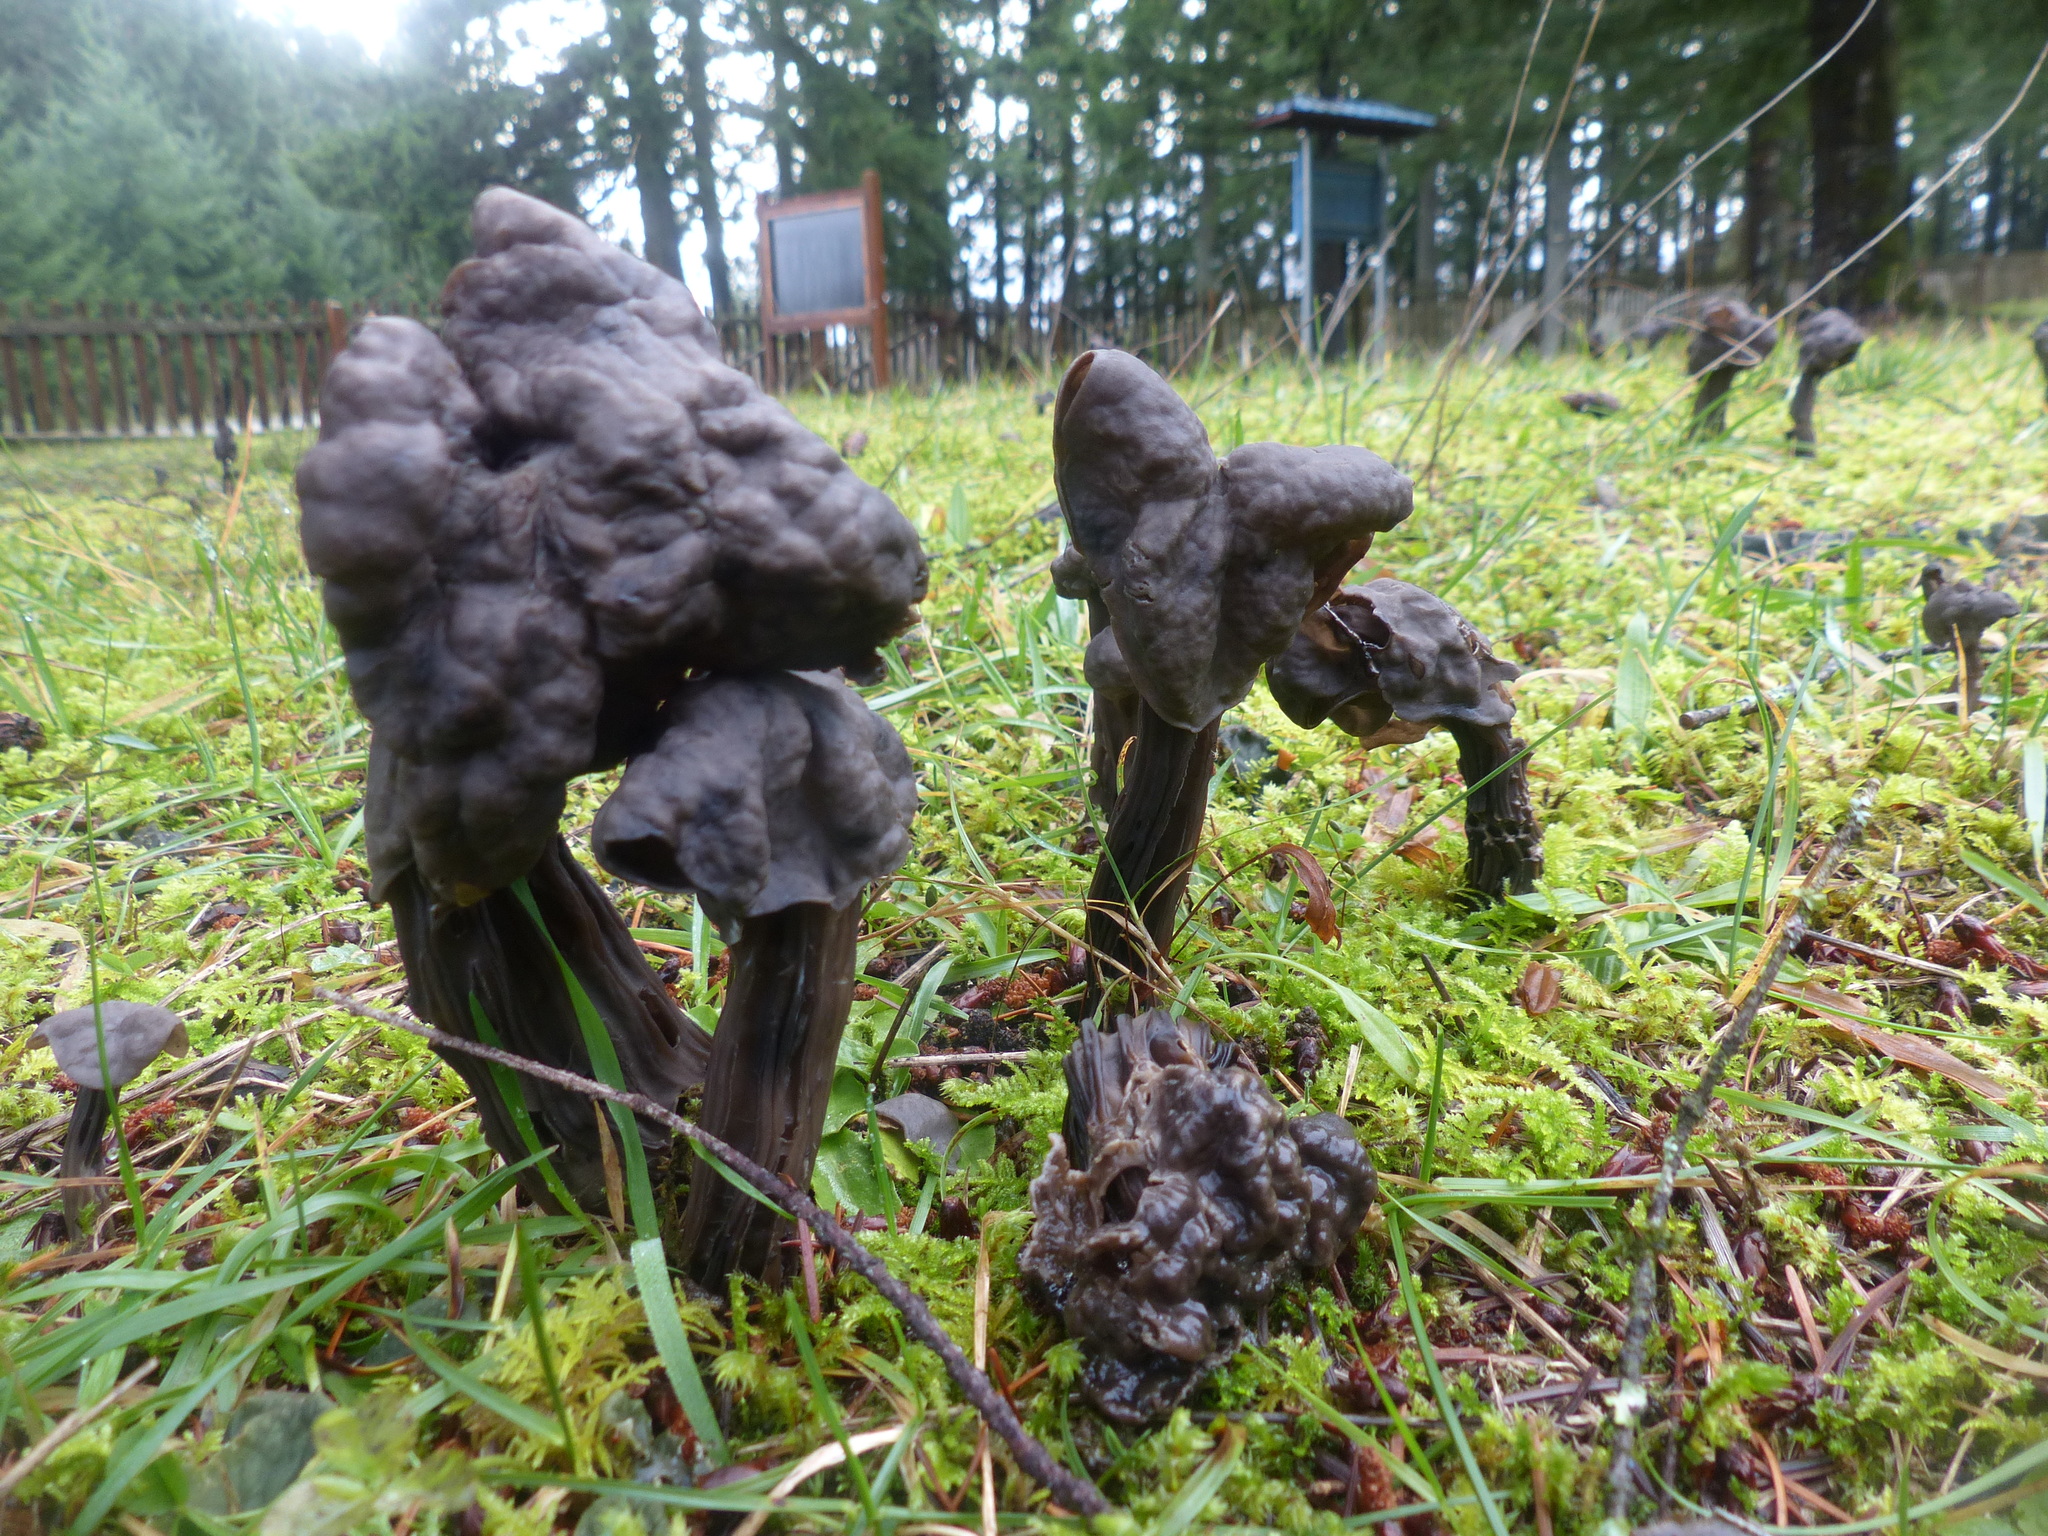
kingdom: Fungi
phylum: Ascomycota
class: Pezizomycetes
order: Pezizales
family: Helvellaceae
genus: Helvella
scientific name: Helvella vespertina
